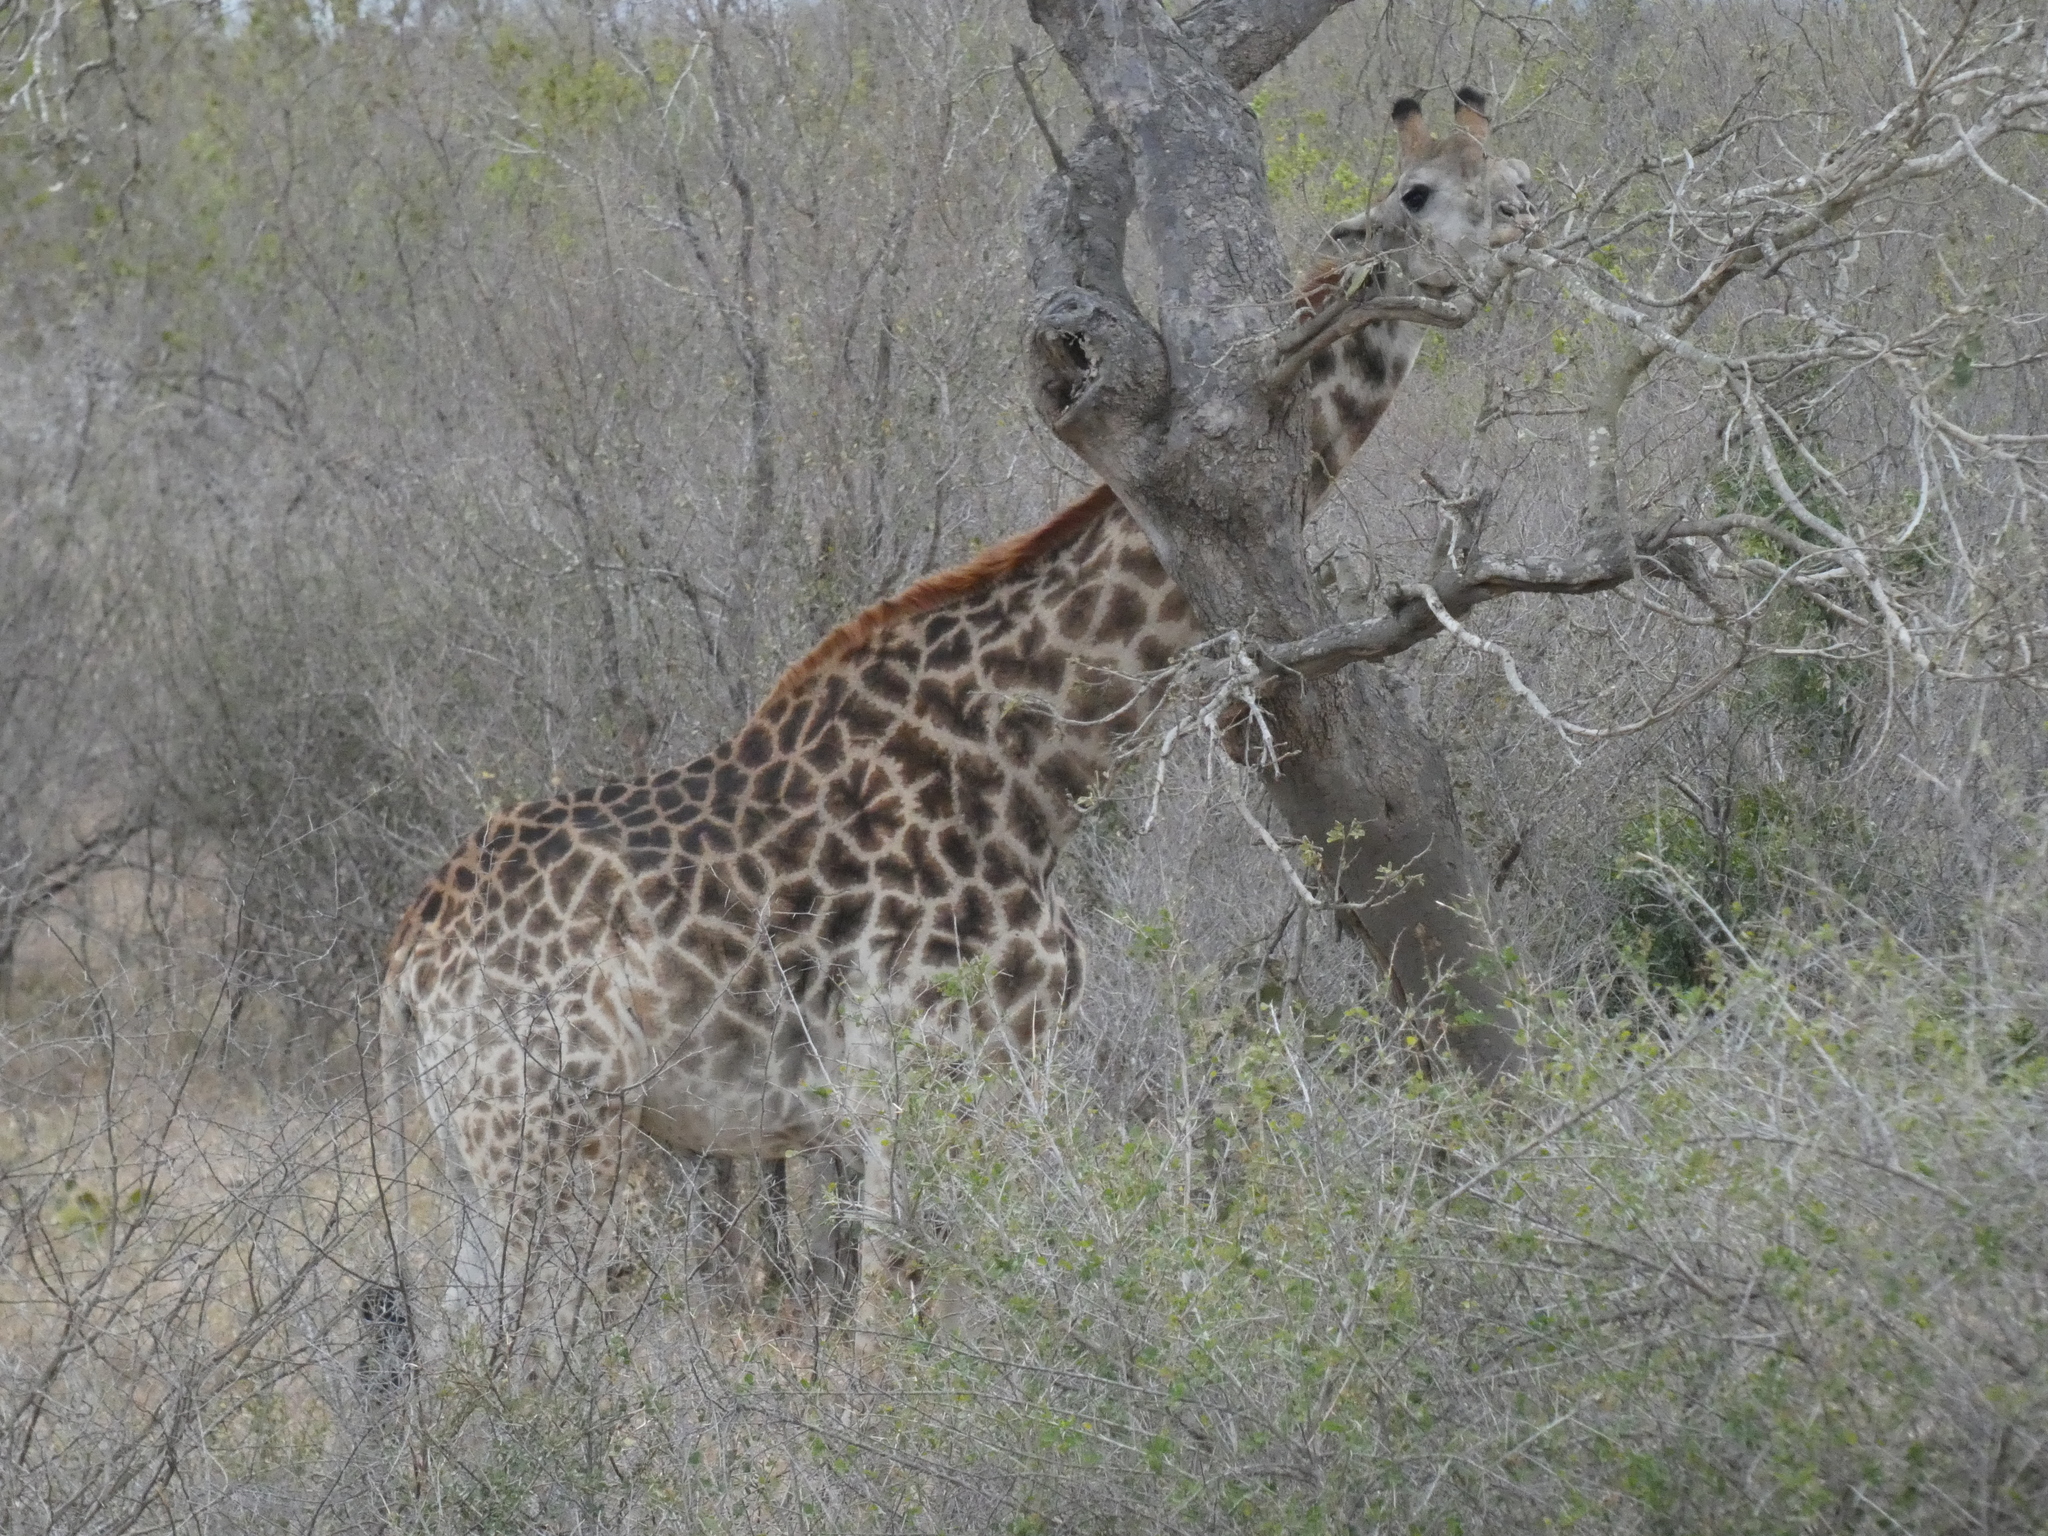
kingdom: Animalia
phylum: Chordata
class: Mammalia
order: Artiodactyla
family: Giraffidae
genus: Giraffa
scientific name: Giraffa giraffa
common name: Southern giraffe
